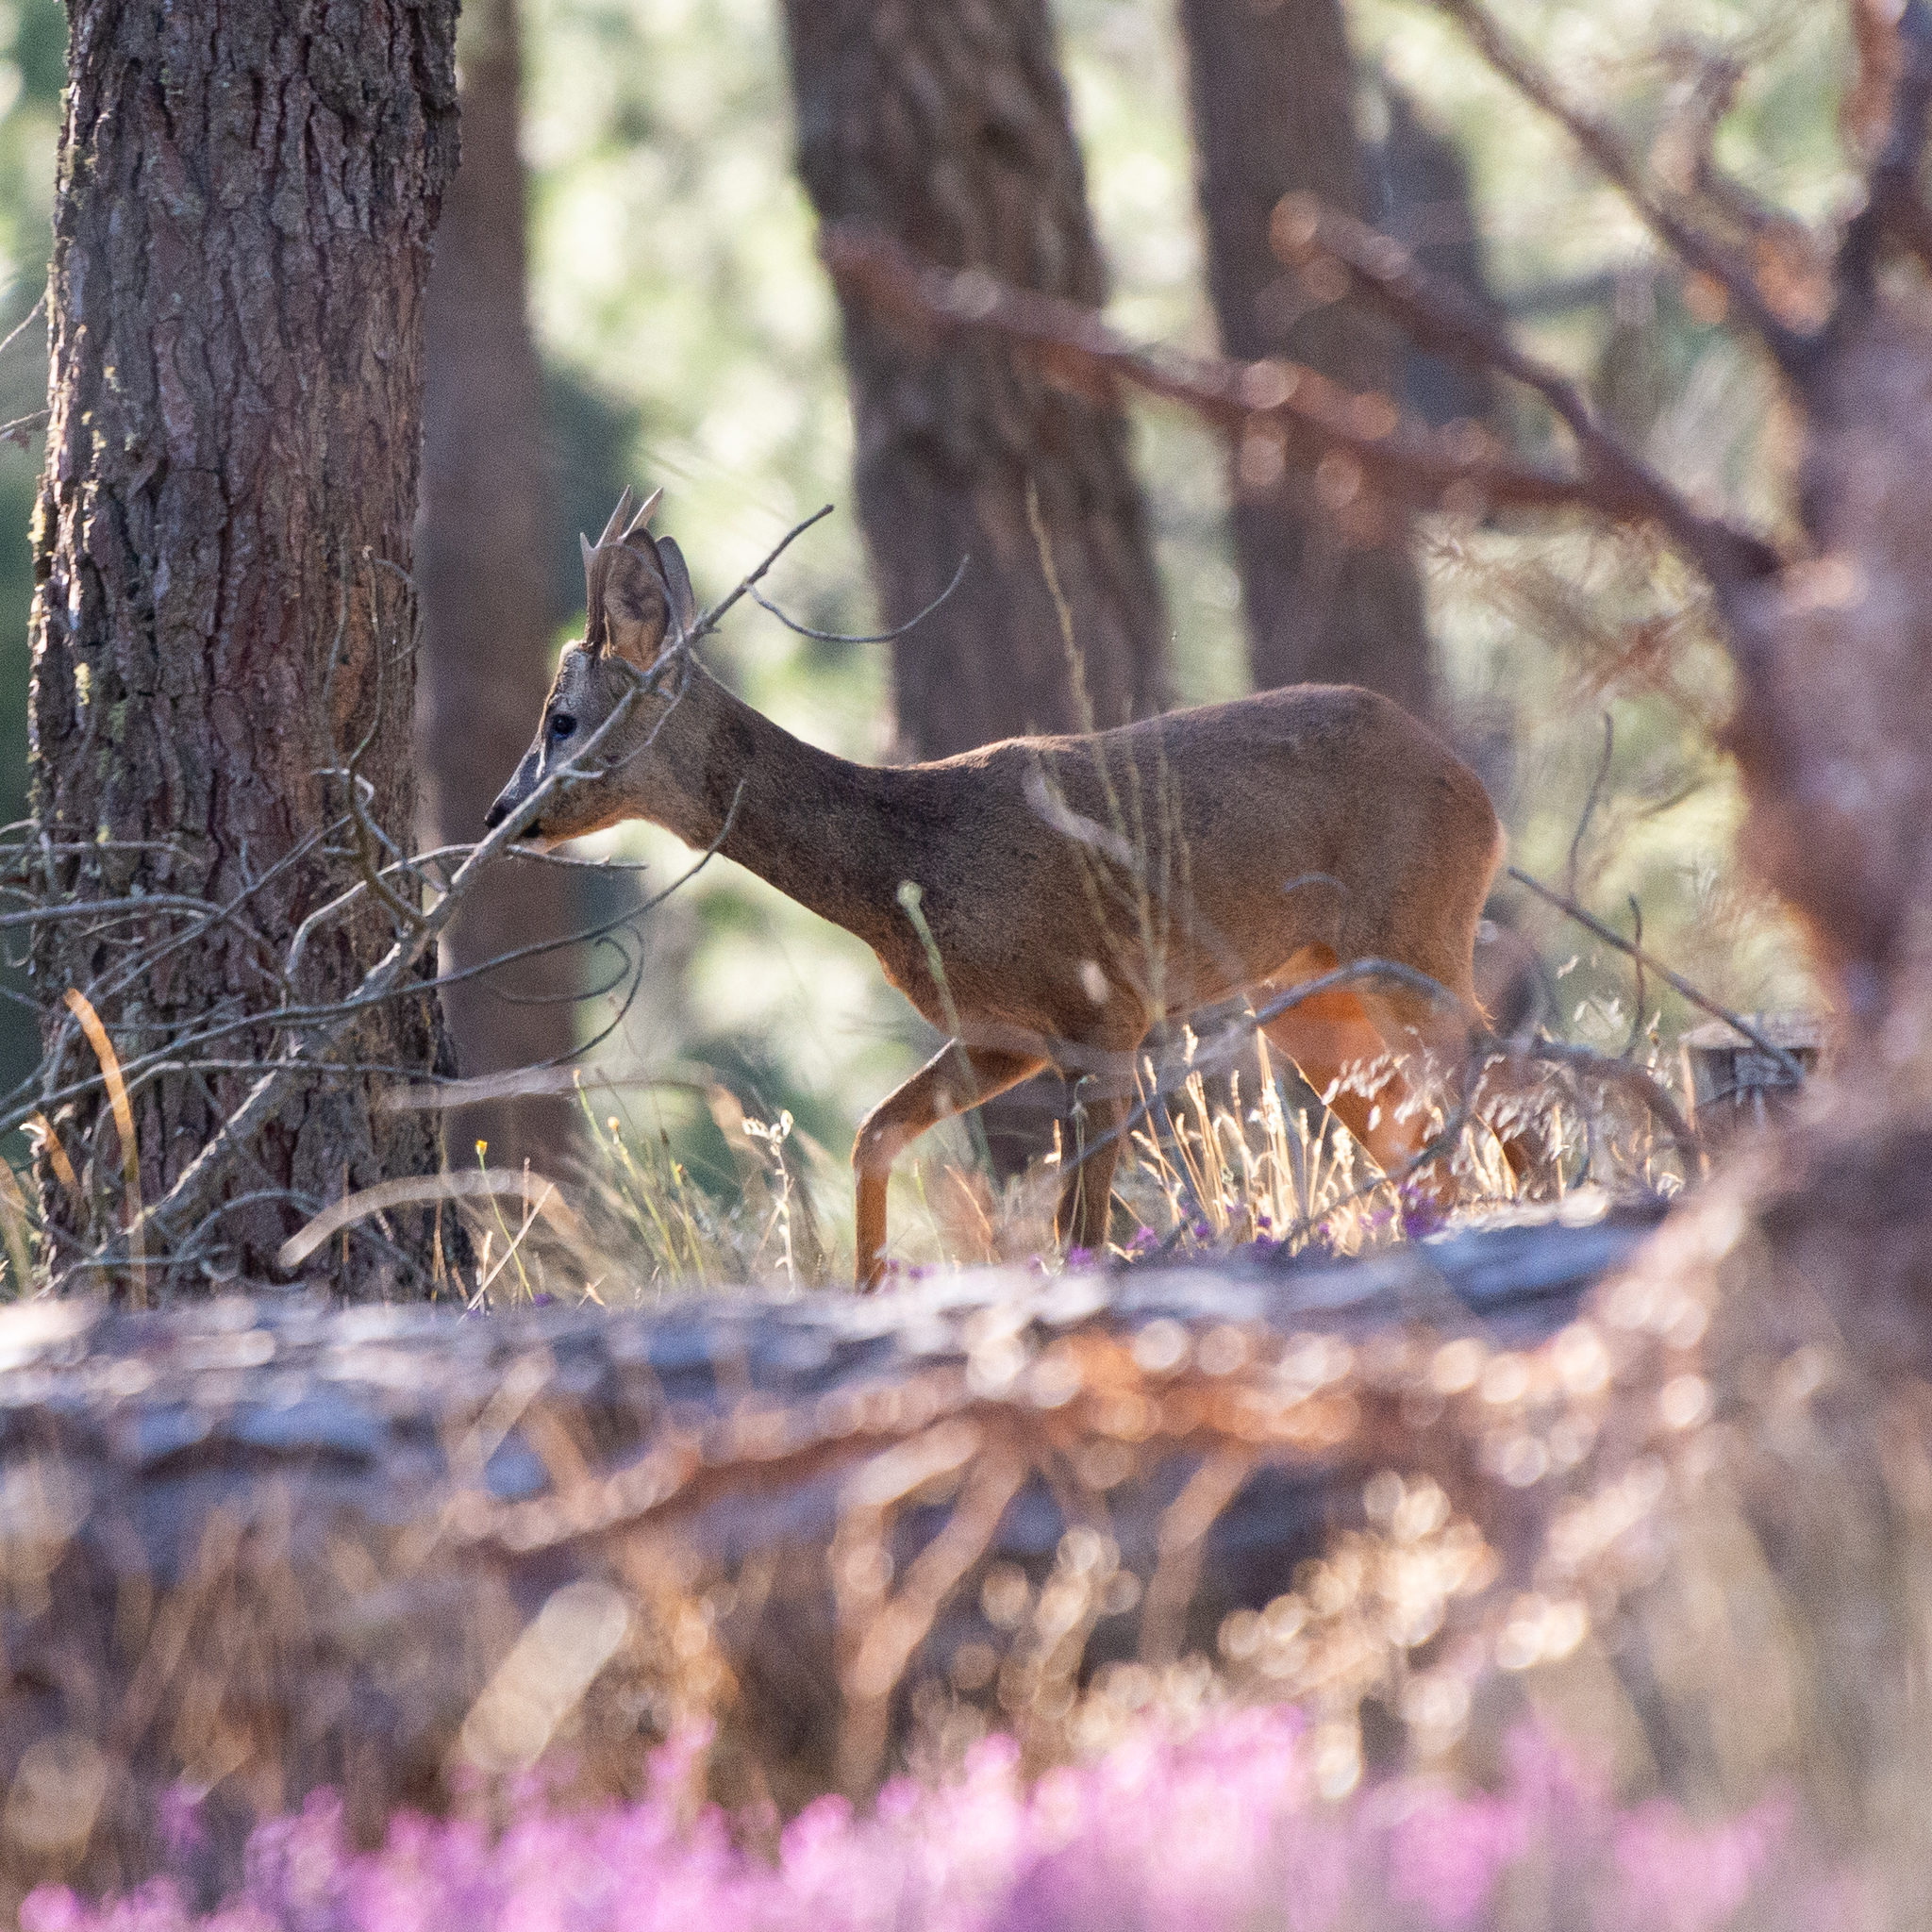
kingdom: Animalia
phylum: Chordata
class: Mammalia
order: Artiodactyla
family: Cervidae
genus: Capreolus
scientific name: Capreolus capreolus
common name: Western roe deer
